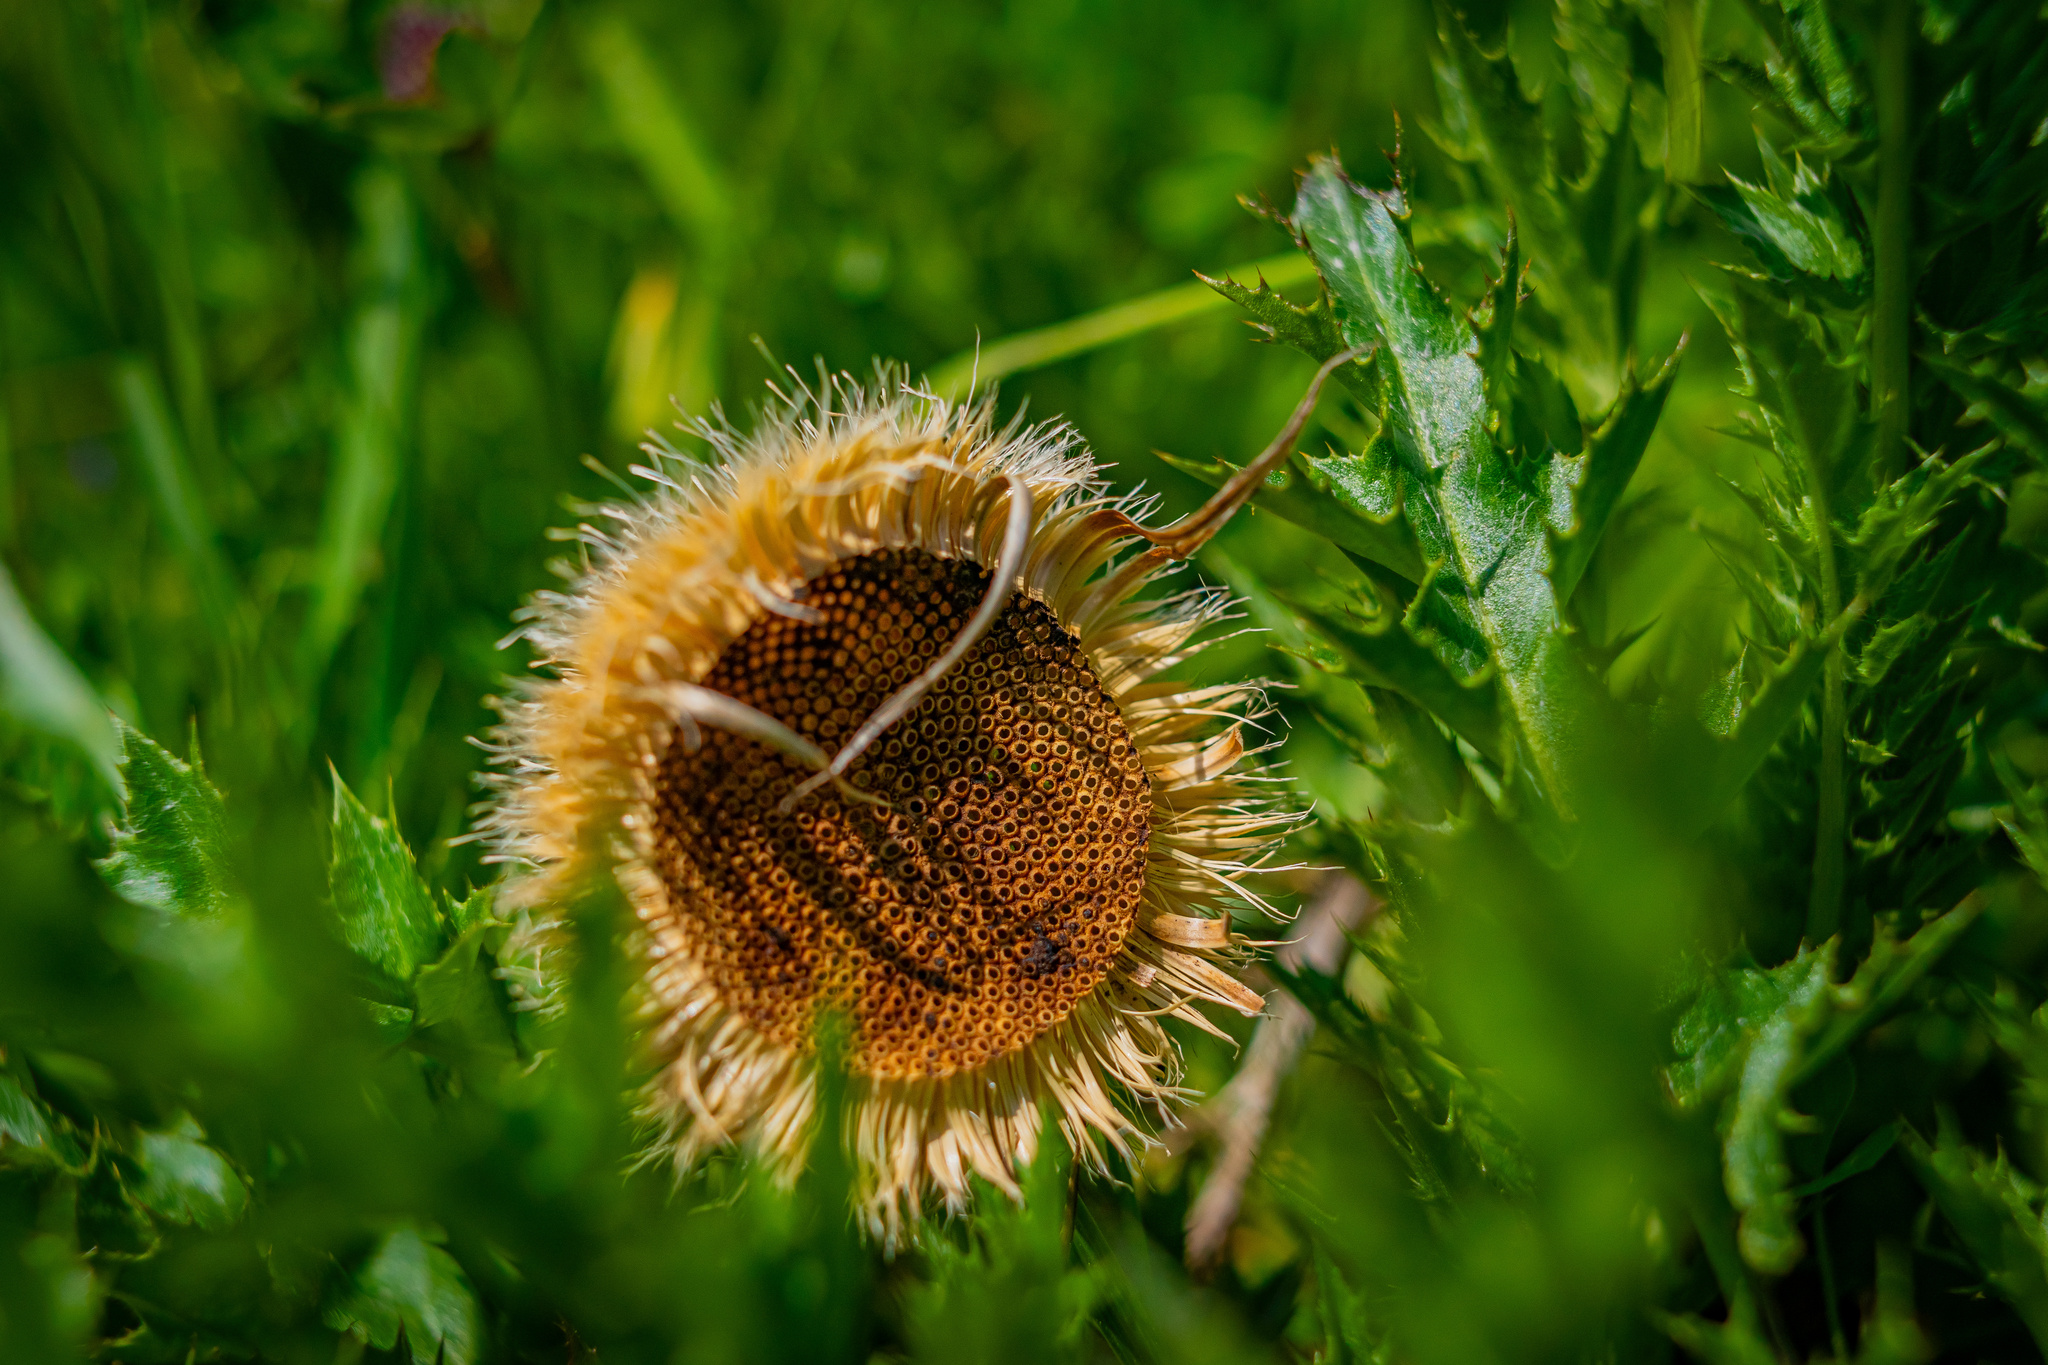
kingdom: Plantae
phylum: Tracheophyta
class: Magnoliopsida
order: Asterales
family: Asteraceae
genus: Carlina
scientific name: Carlina acaulis
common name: Stemless carline thistle
